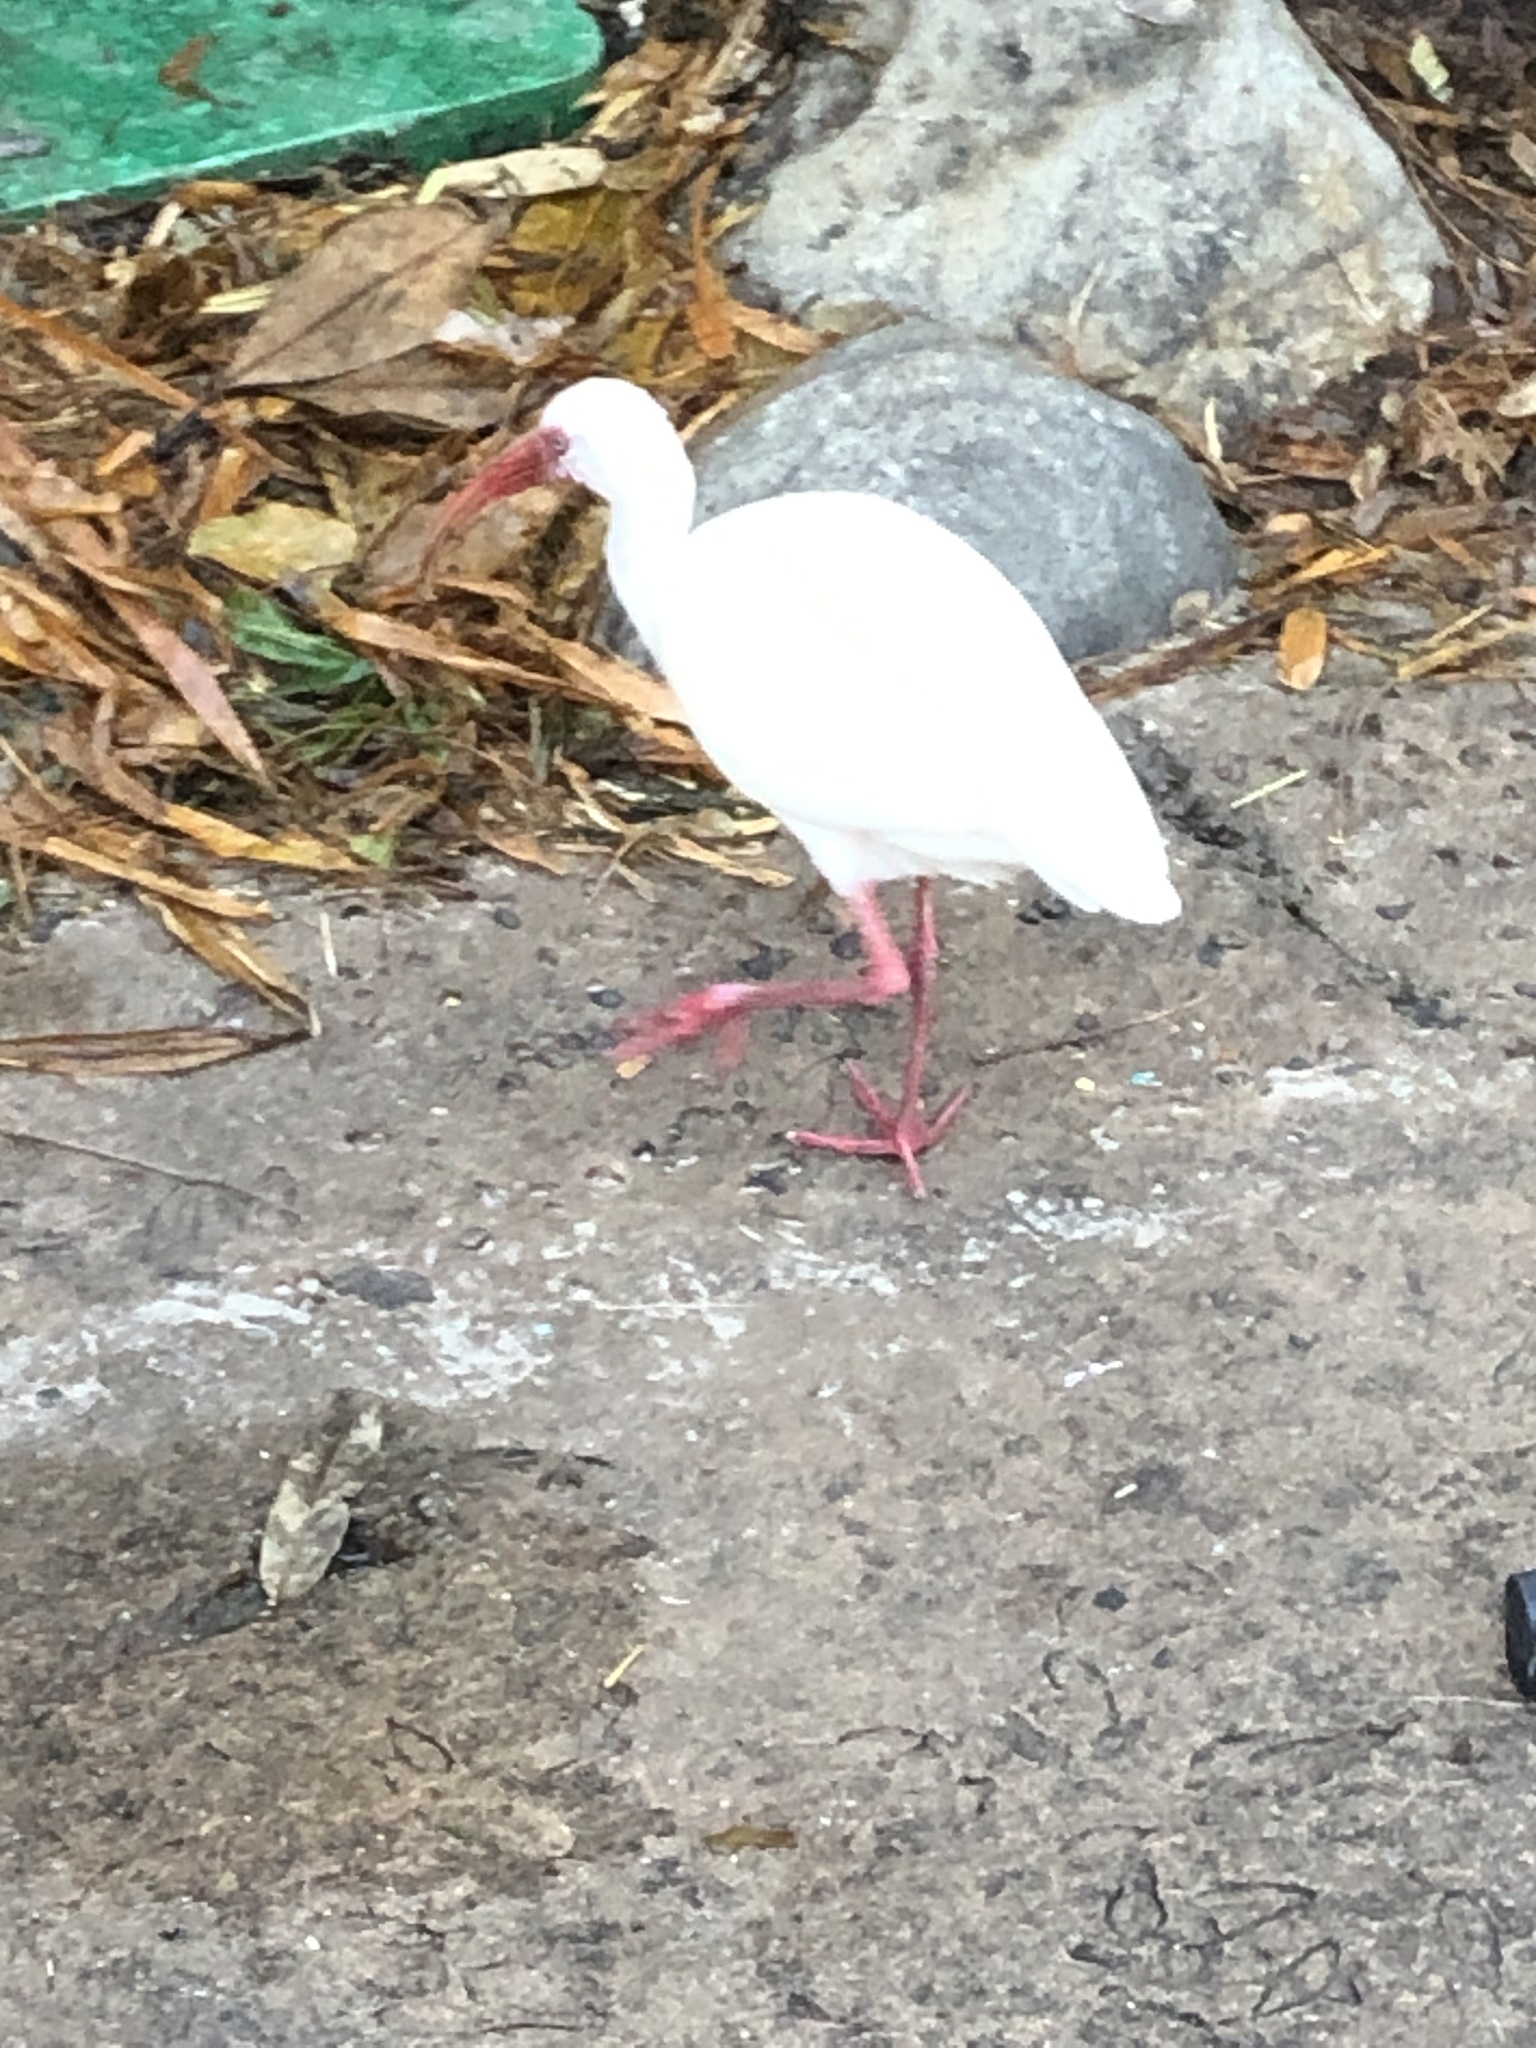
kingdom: Animalia
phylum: Chordata
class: Aves
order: Pelecaniformes
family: Threskiornithidae
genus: Eudocimus
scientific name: Eudocimus albus
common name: White ibis
